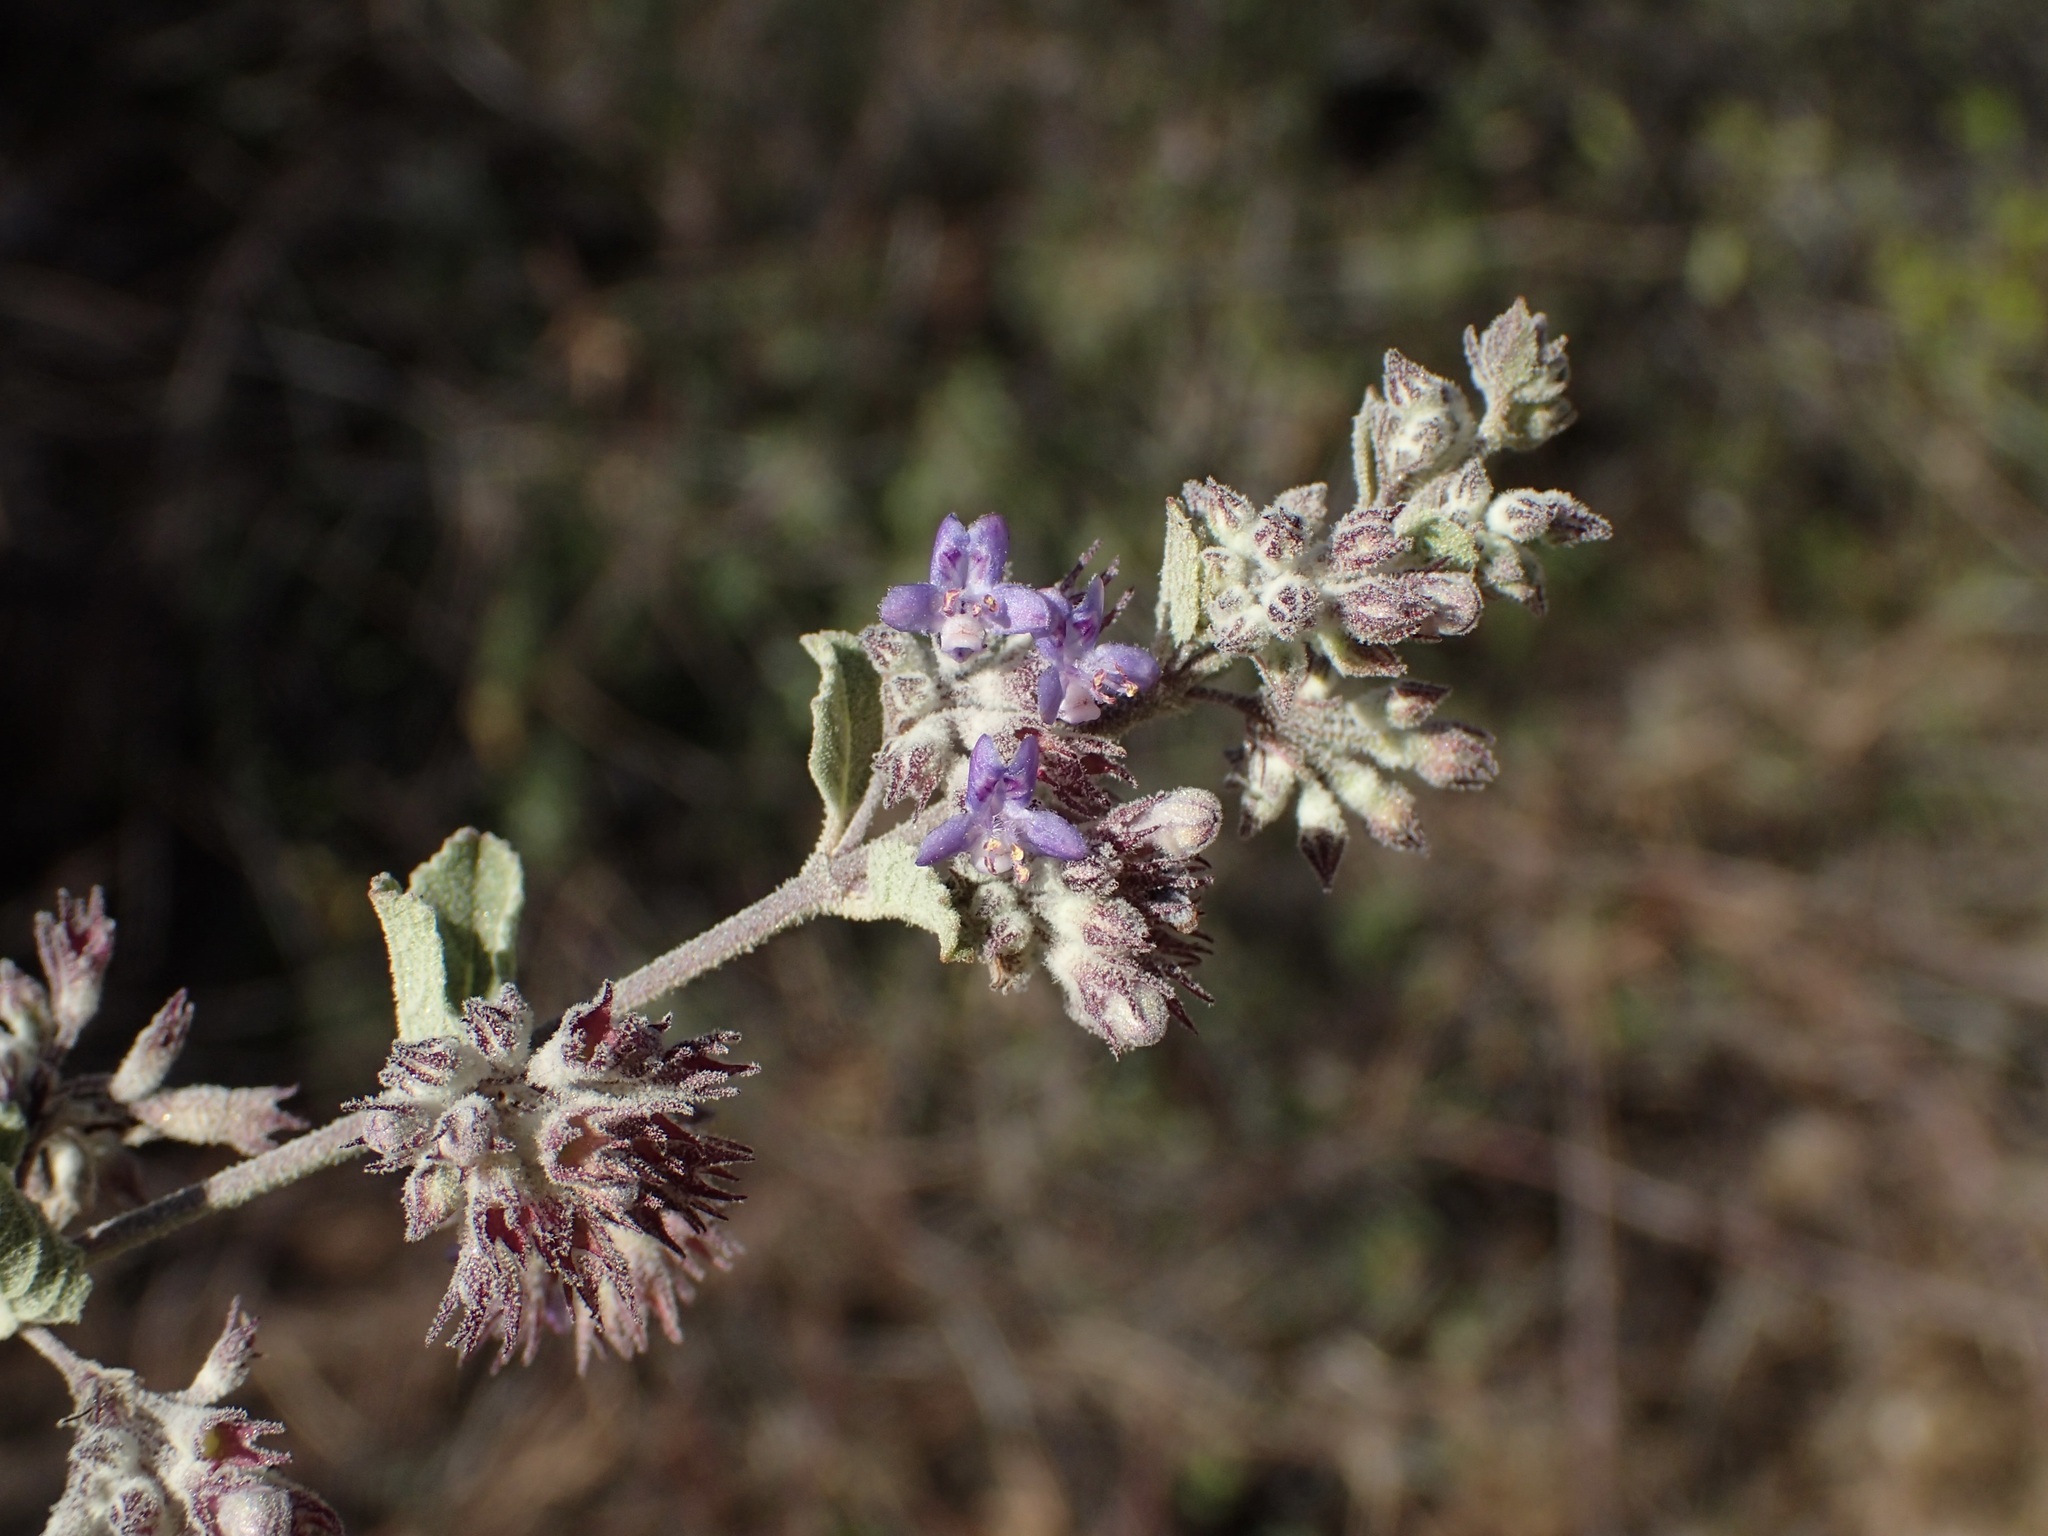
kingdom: Plantae
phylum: Tracheophyta
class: Magnoliopsida
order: Lamiales
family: Lamiaceae
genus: Condea
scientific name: Condea emoryi
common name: Chia
